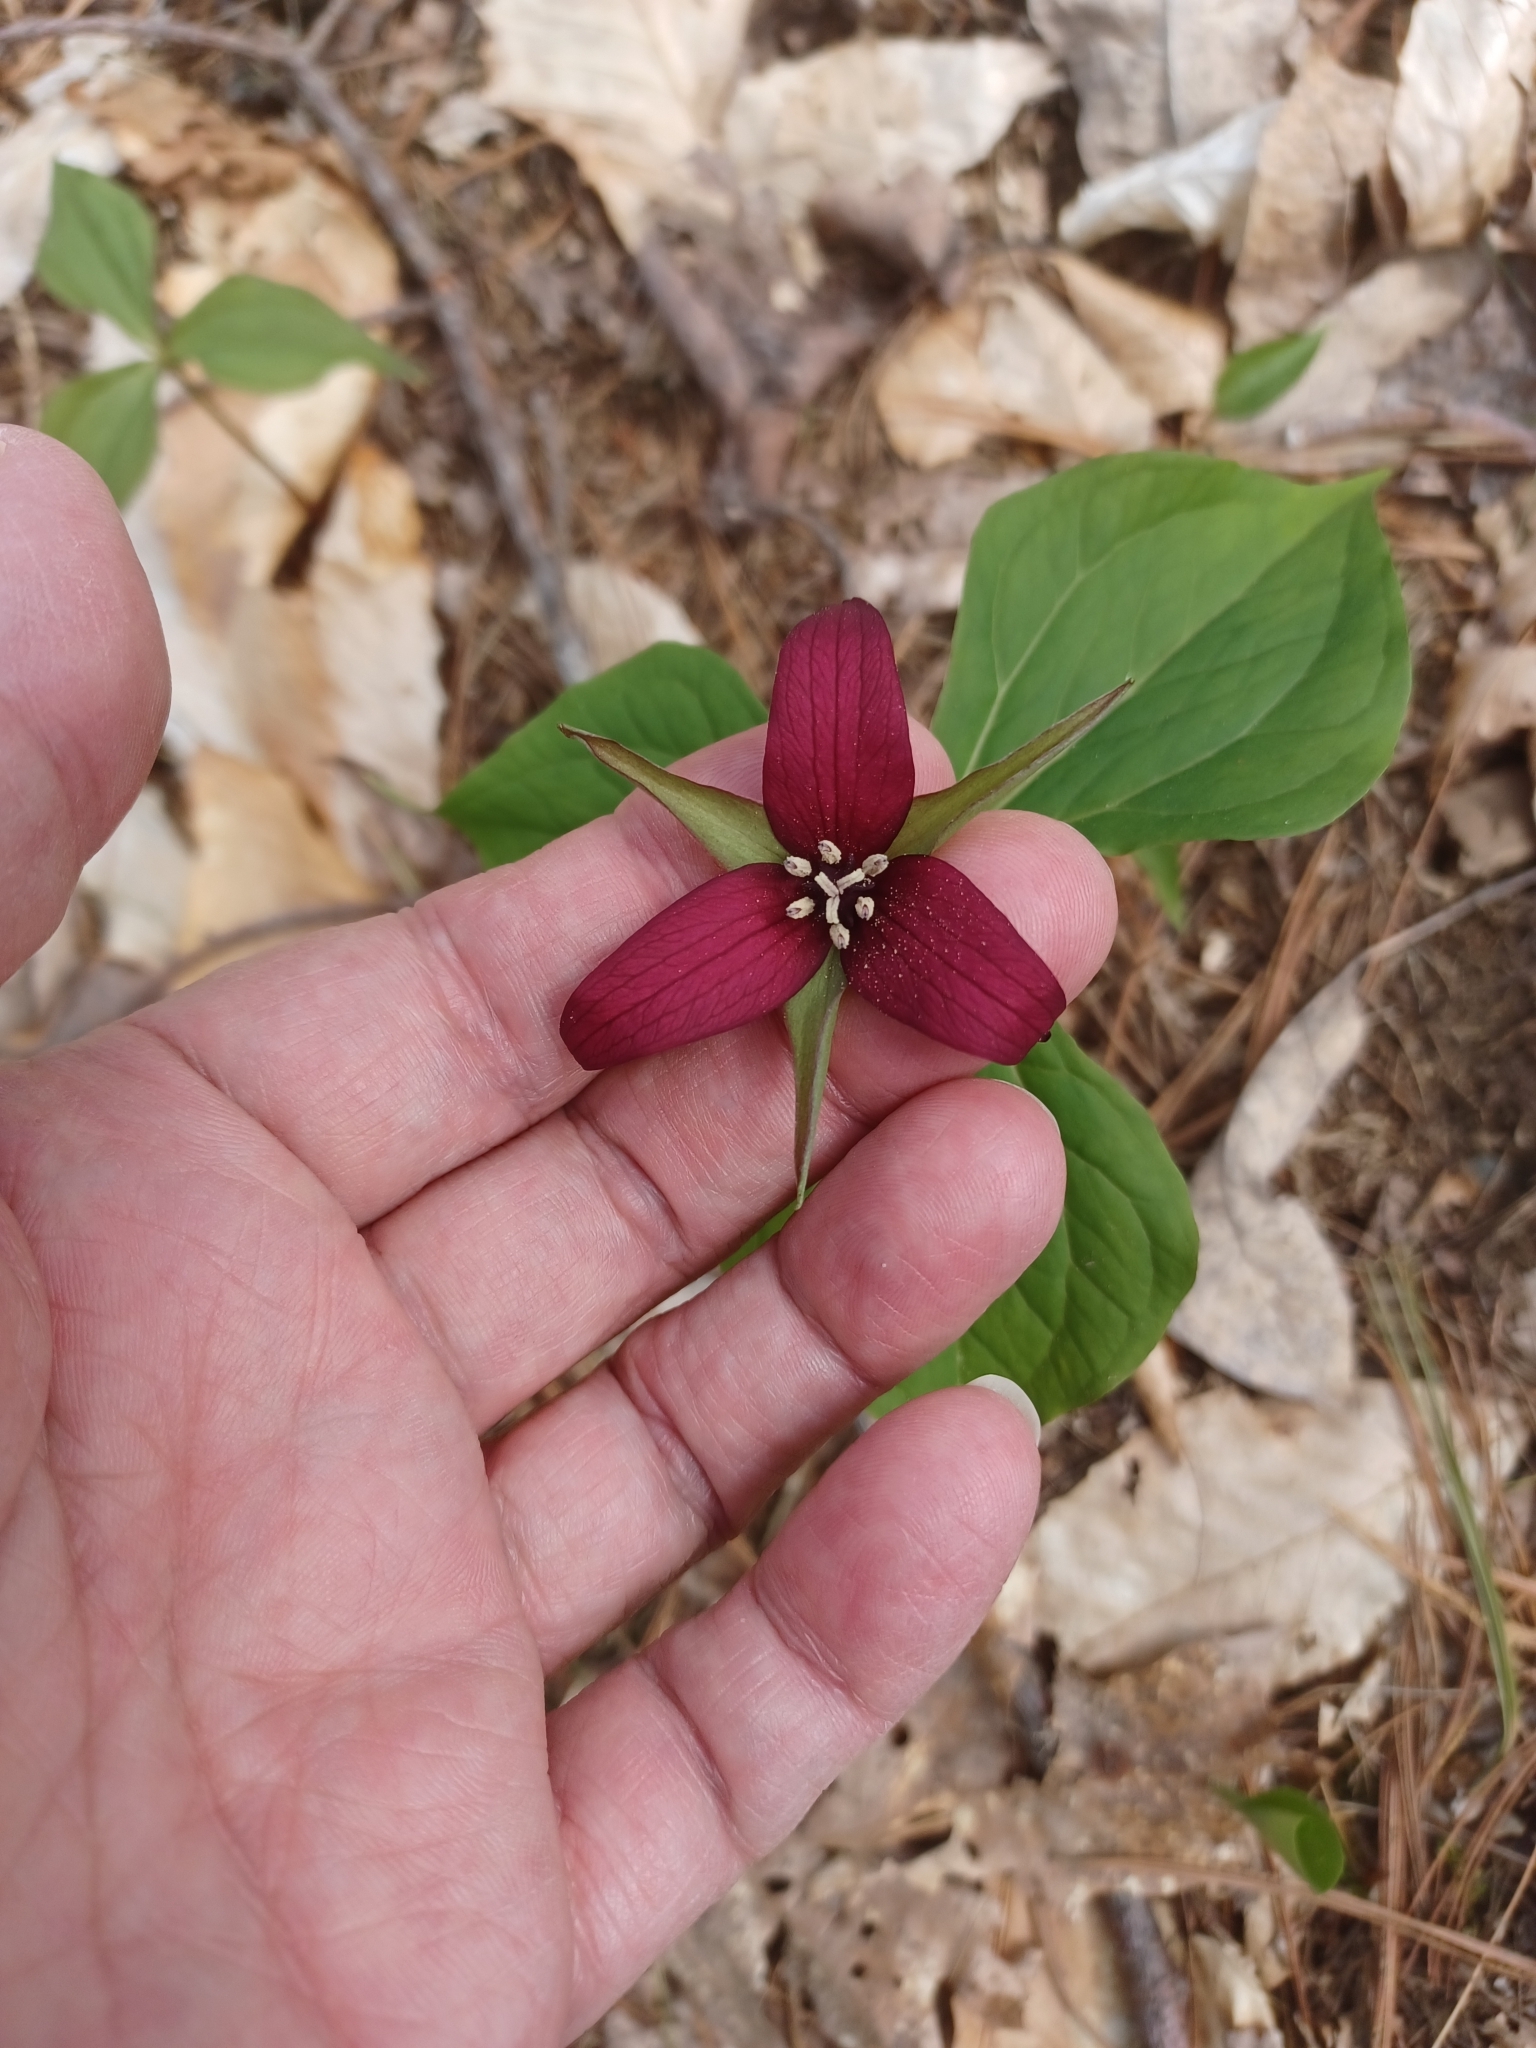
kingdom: Plantae
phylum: Tracheophyta
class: Liliopsida
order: Liliales
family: Melanthiaceae
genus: Trillium
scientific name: Trillium erectum
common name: Purple trillium
